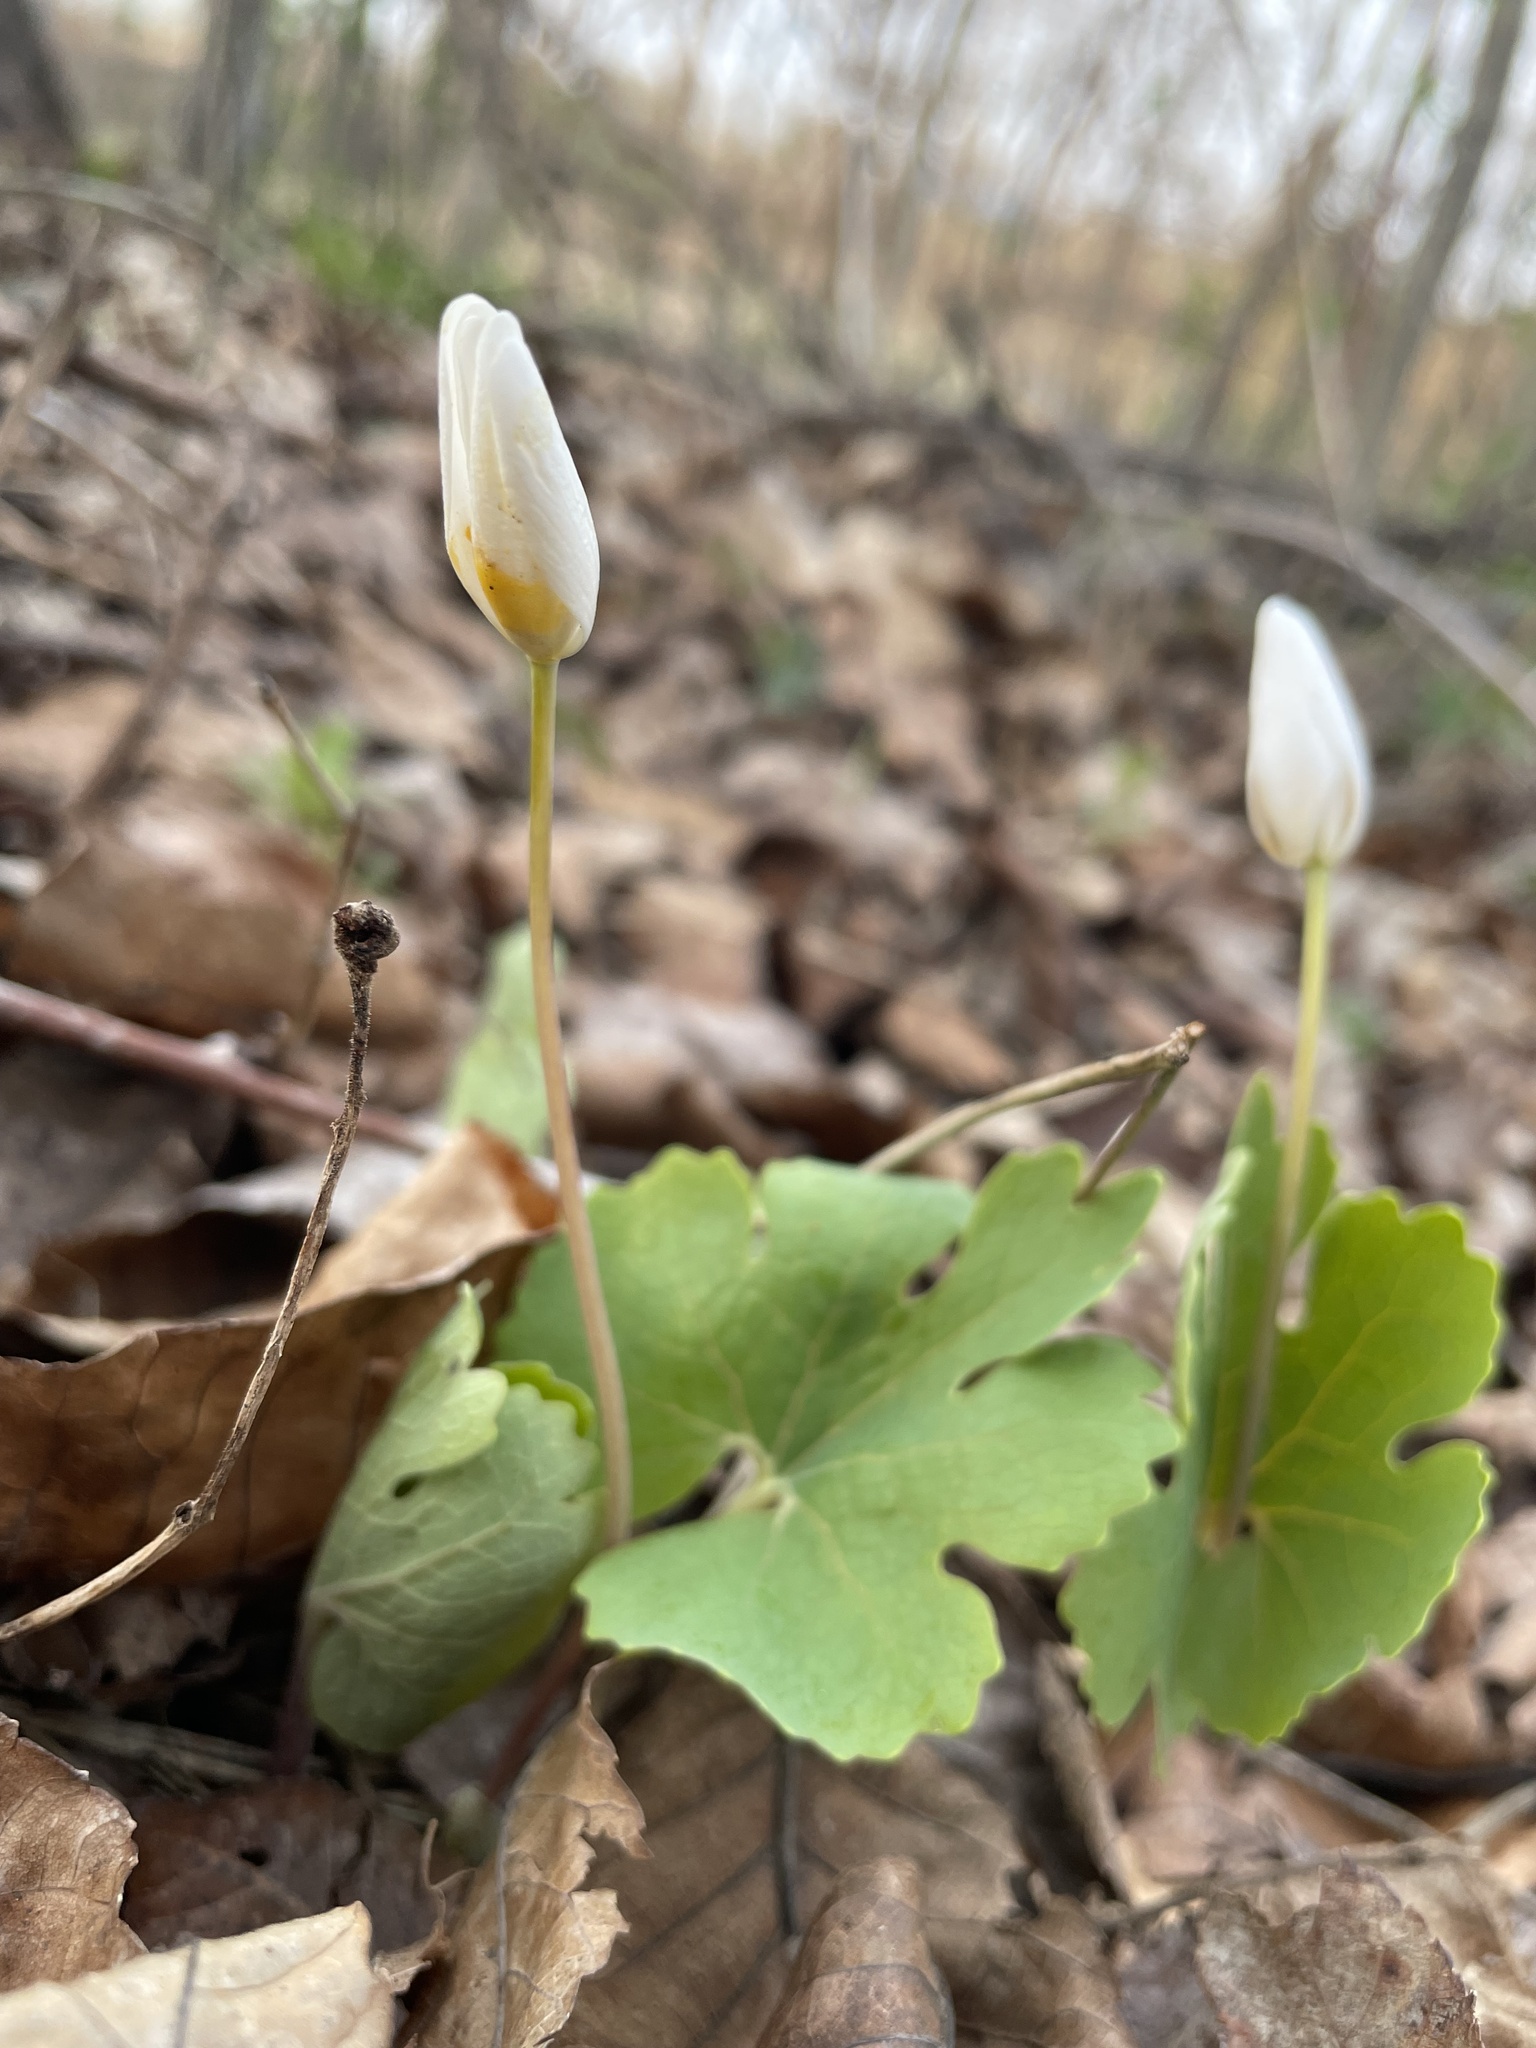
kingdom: Plantae
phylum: Tracheophyta
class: Magnoliopsida
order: Ranunculales
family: Papaveraceae
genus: Sanguinaria
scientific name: Sanguinaria canadensis
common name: Bloodroot
